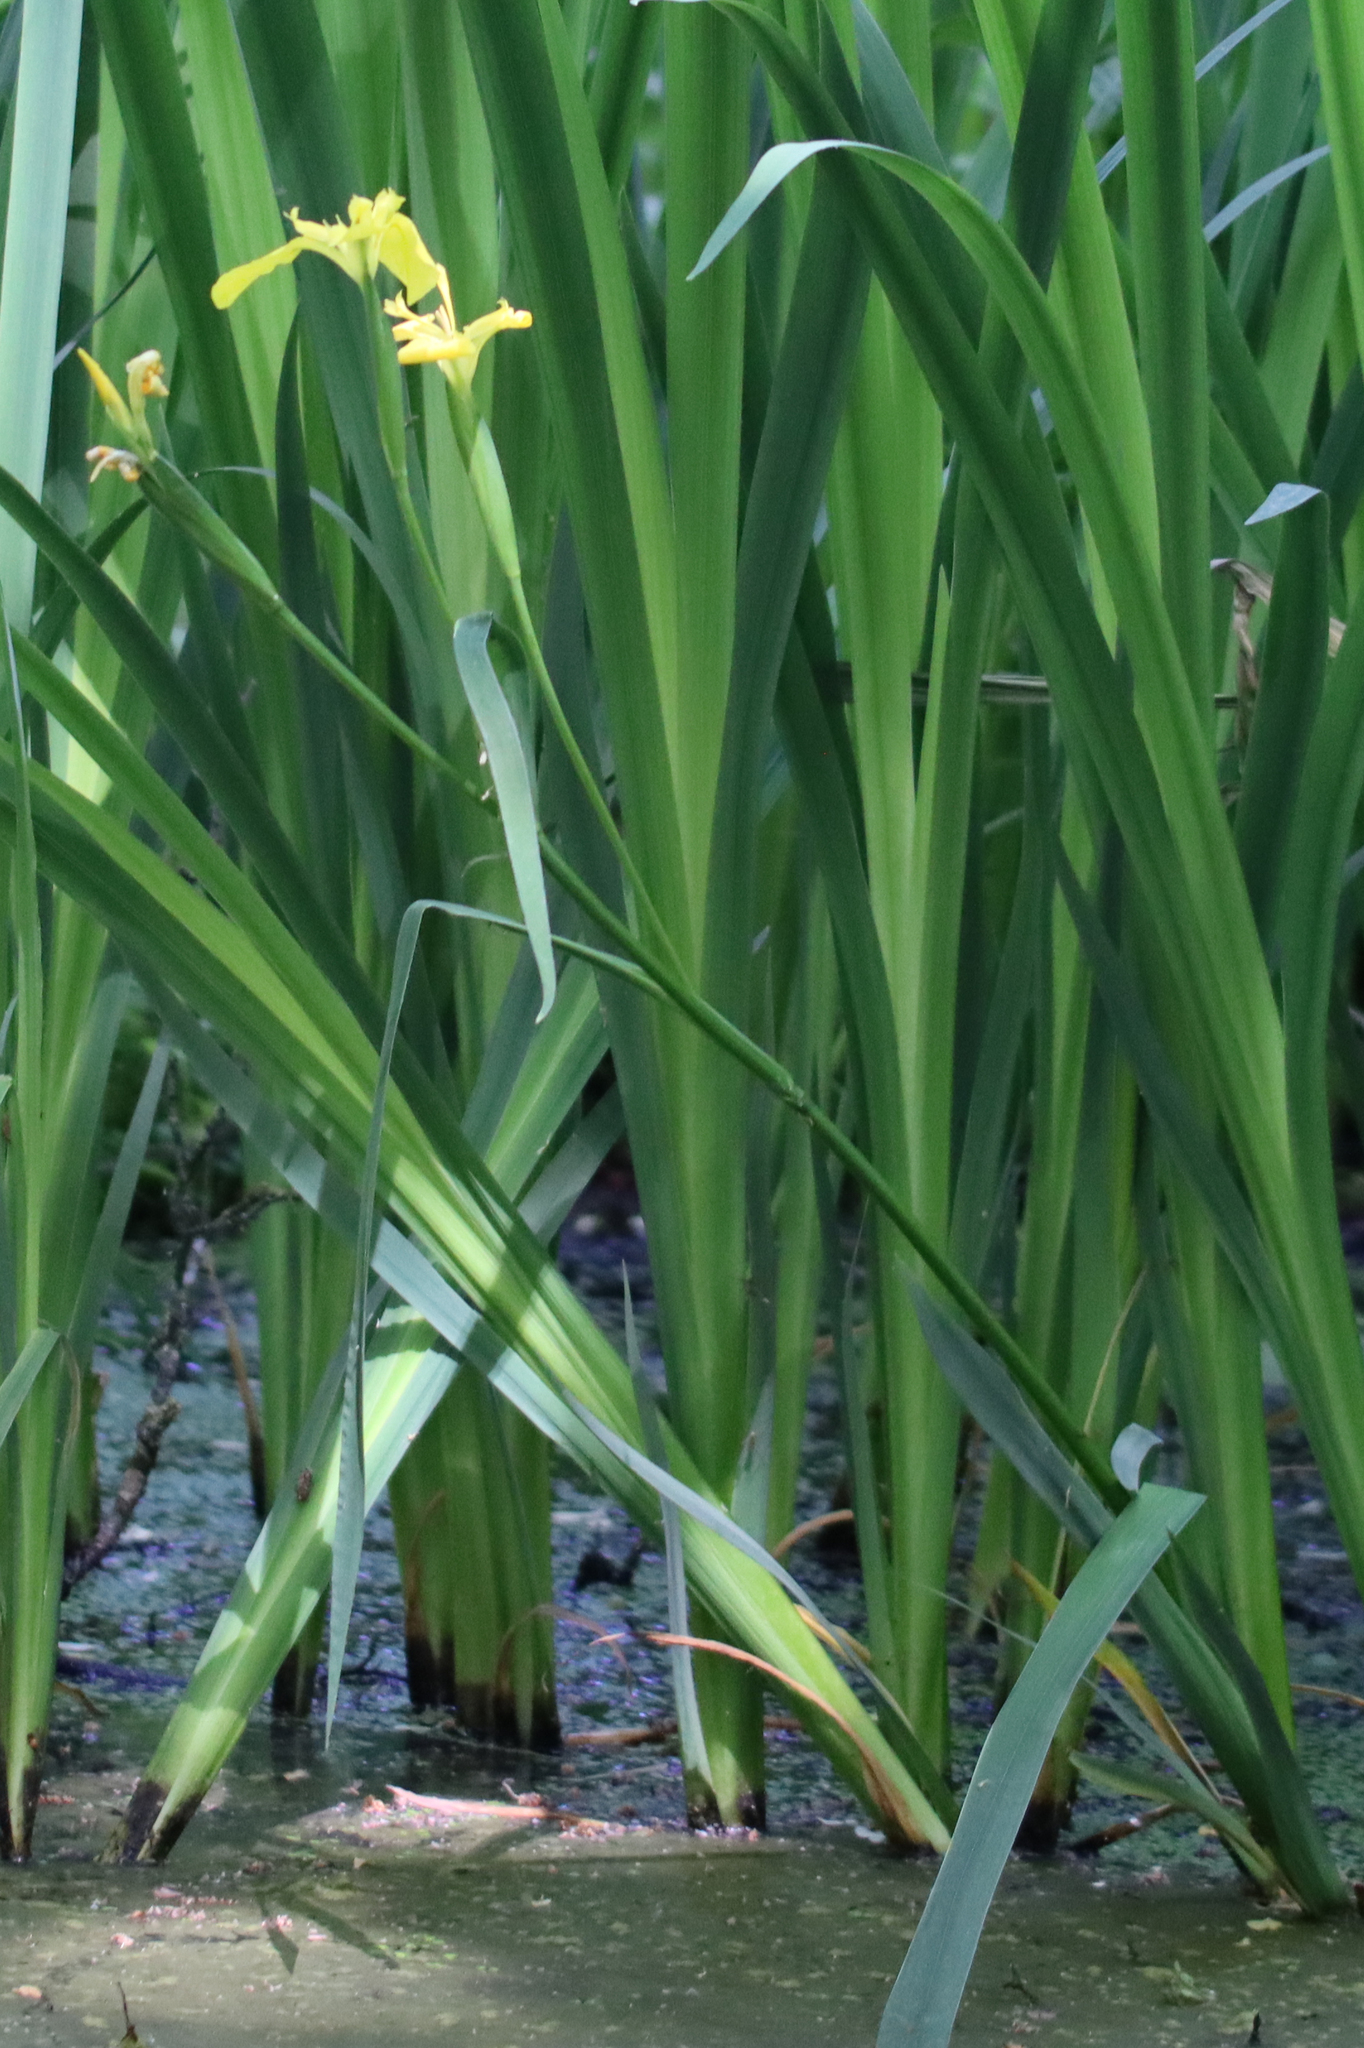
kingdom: Plantae
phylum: Tracheophyta
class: Liliopsida
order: Asparagales
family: Iridaceae
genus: Iris
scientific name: Iris pseudacorus
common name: Yellow flag
